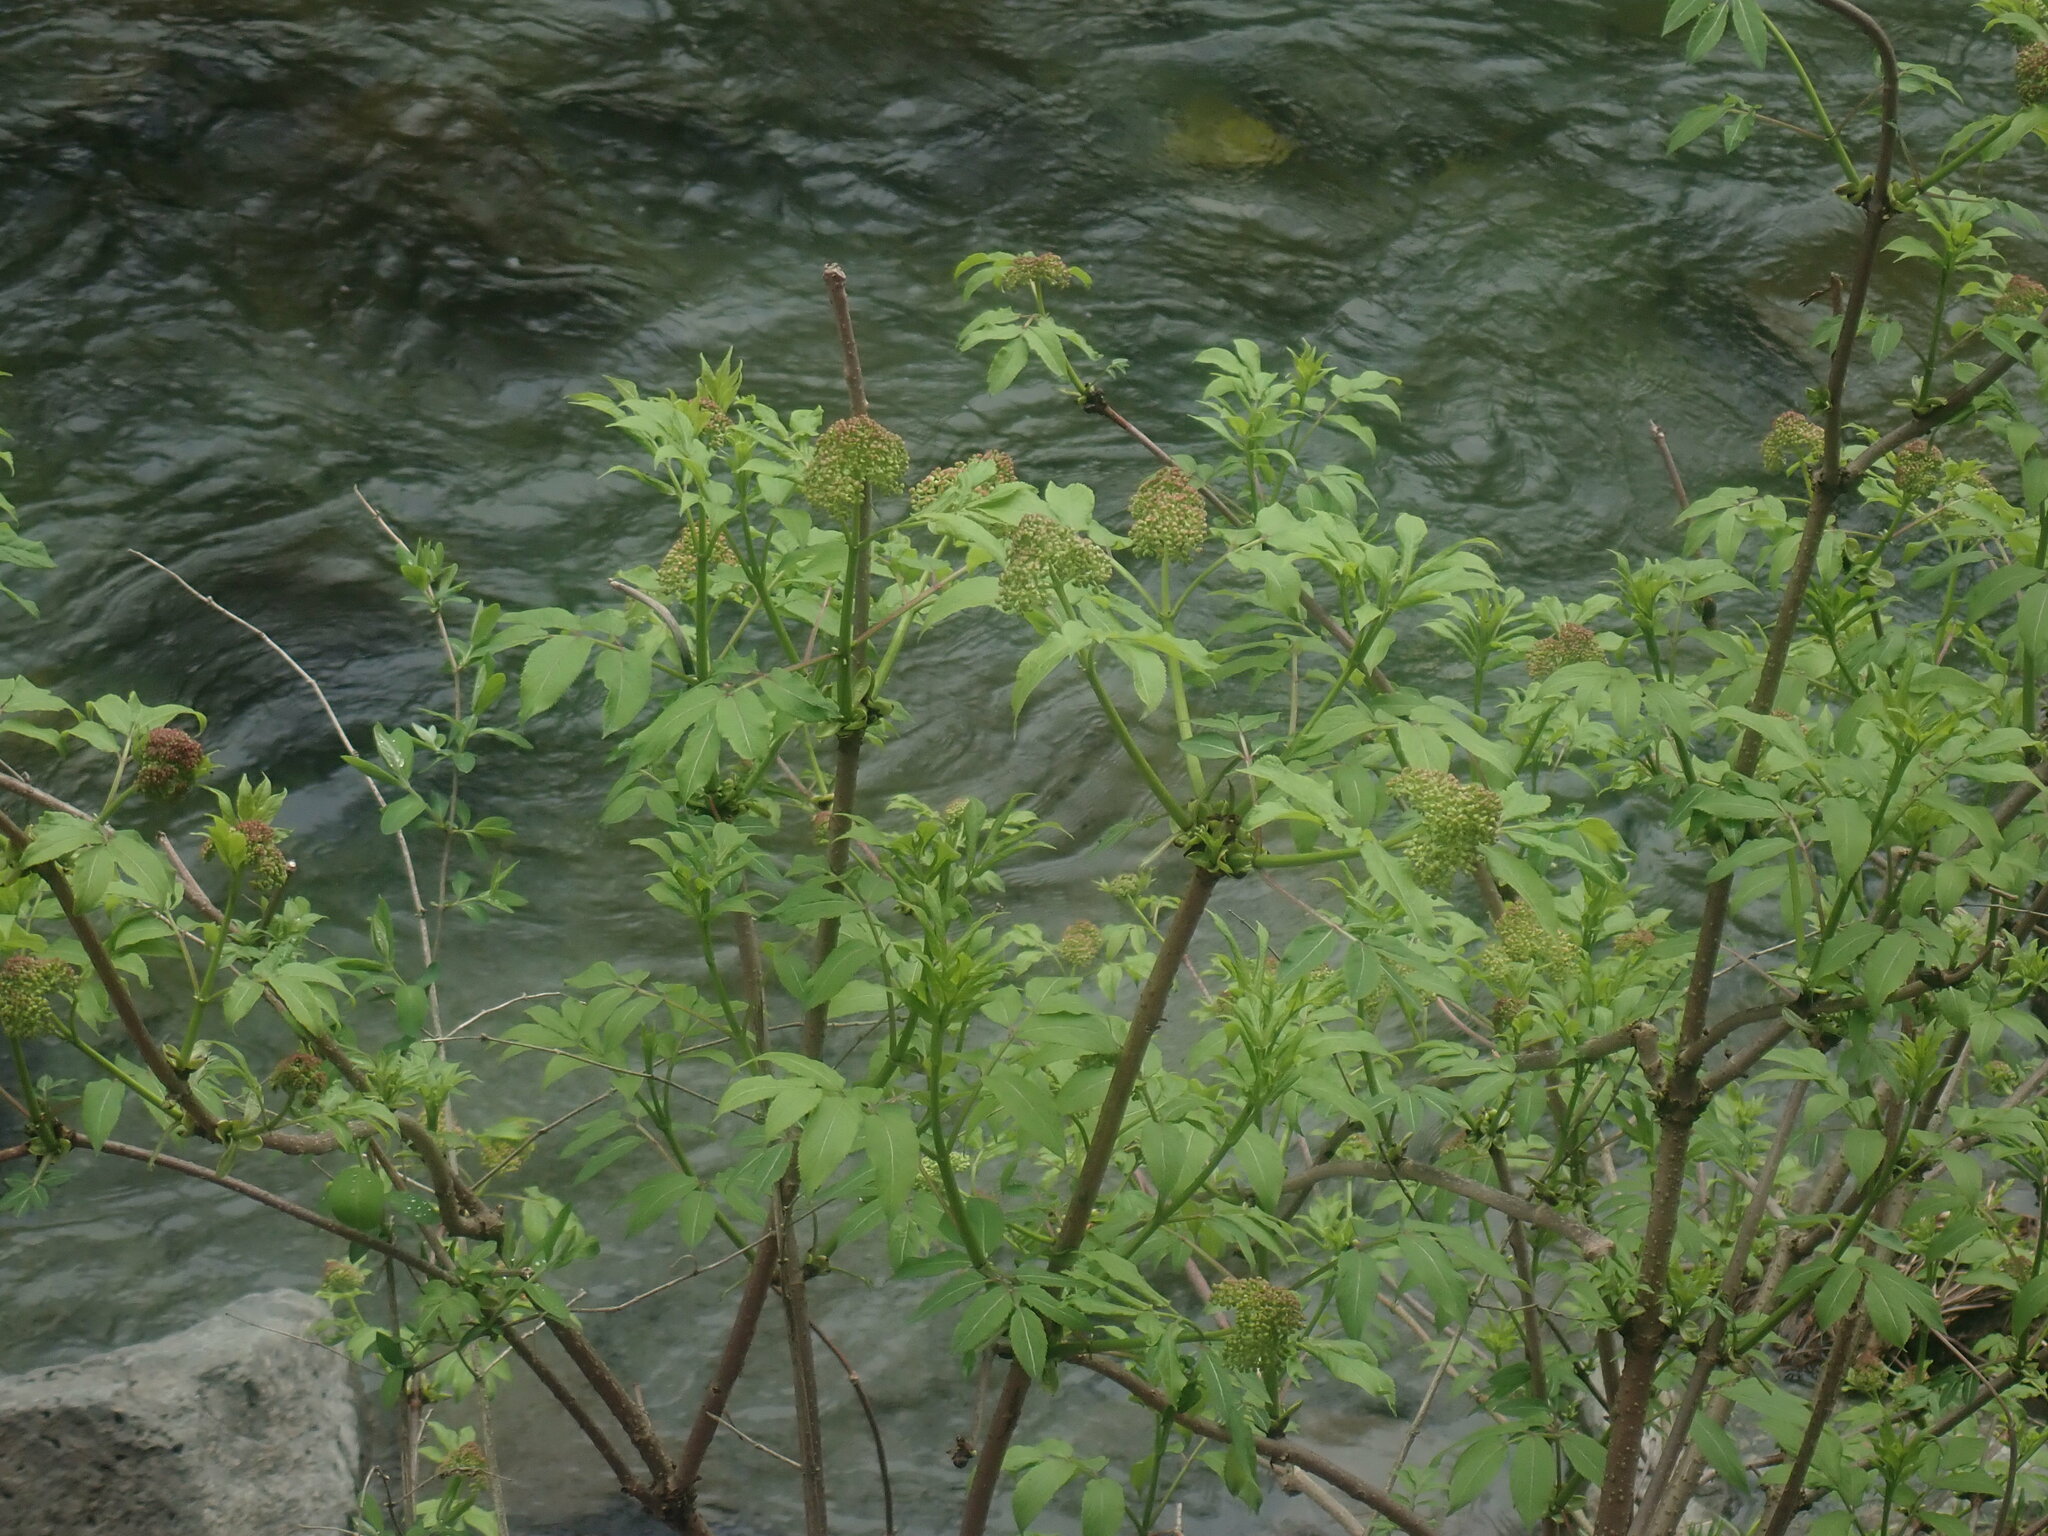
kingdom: Plantae
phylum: Tracheophyta
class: Magnoliopsida
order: Dipsacales
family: Viburnaceae
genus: Sambucus
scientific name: Sambucus racemosa
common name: Red-berried elder
